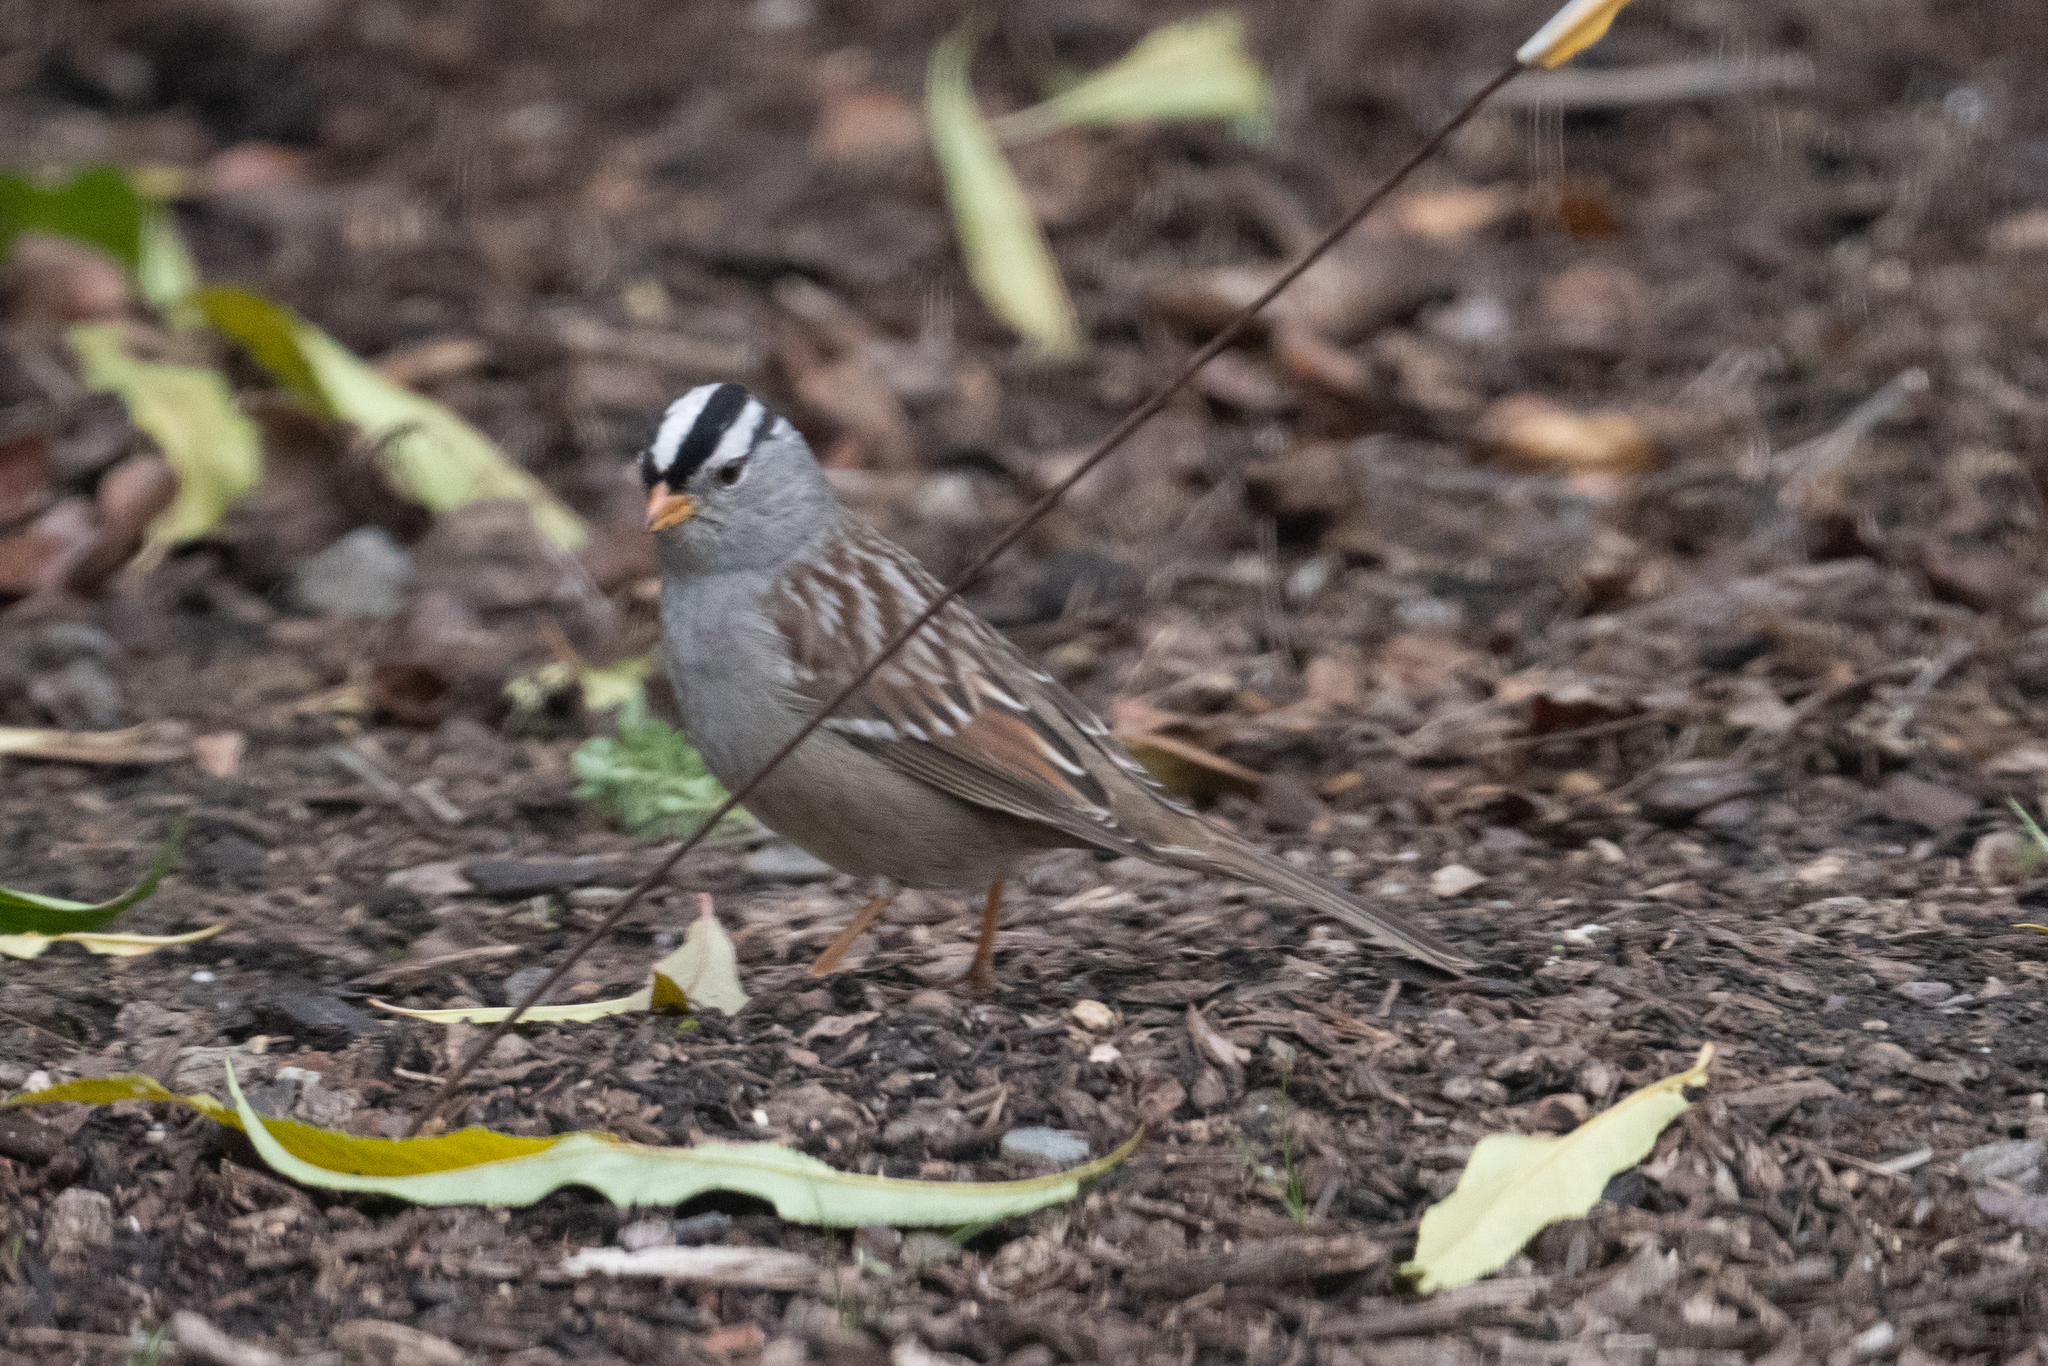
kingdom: Animalia
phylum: Chordata
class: Aves
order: Passeriformes
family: Passerellidae
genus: Zonotrichia
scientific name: Zonotrichia leucophrys
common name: White-crowned sparrow
